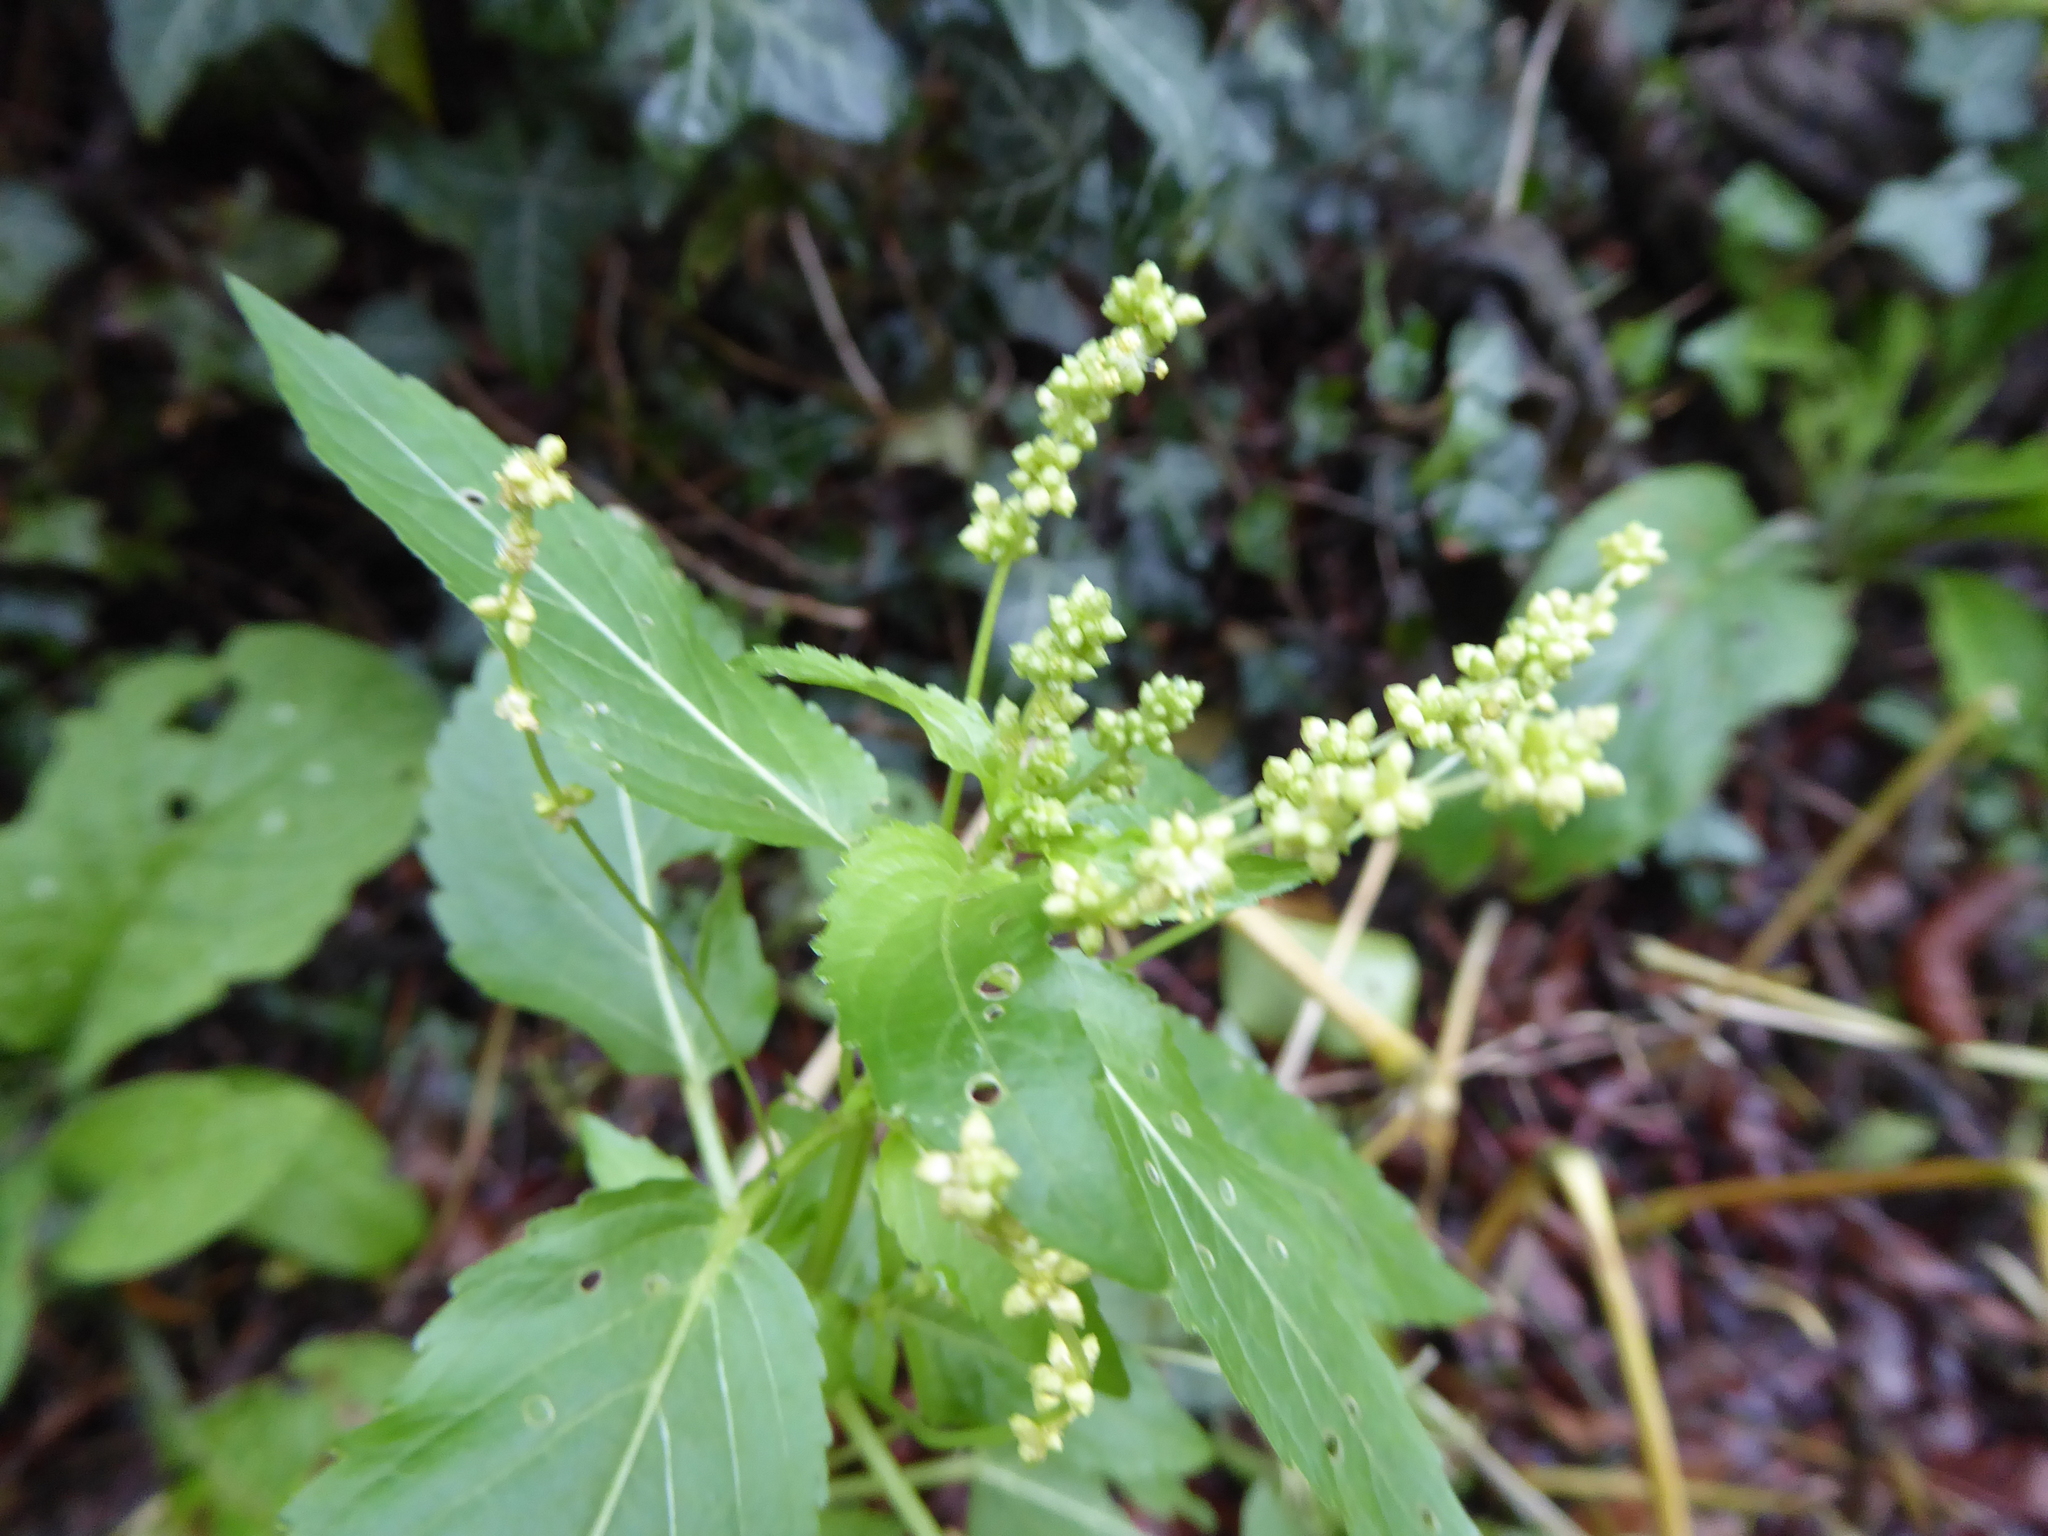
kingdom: Plantae
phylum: Tracheophyta
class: Magnoliopsida
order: Malpighiales
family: Euphorbiaceae
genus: Mercurialis
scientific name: Mercurialis annua
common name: Annual mercury
